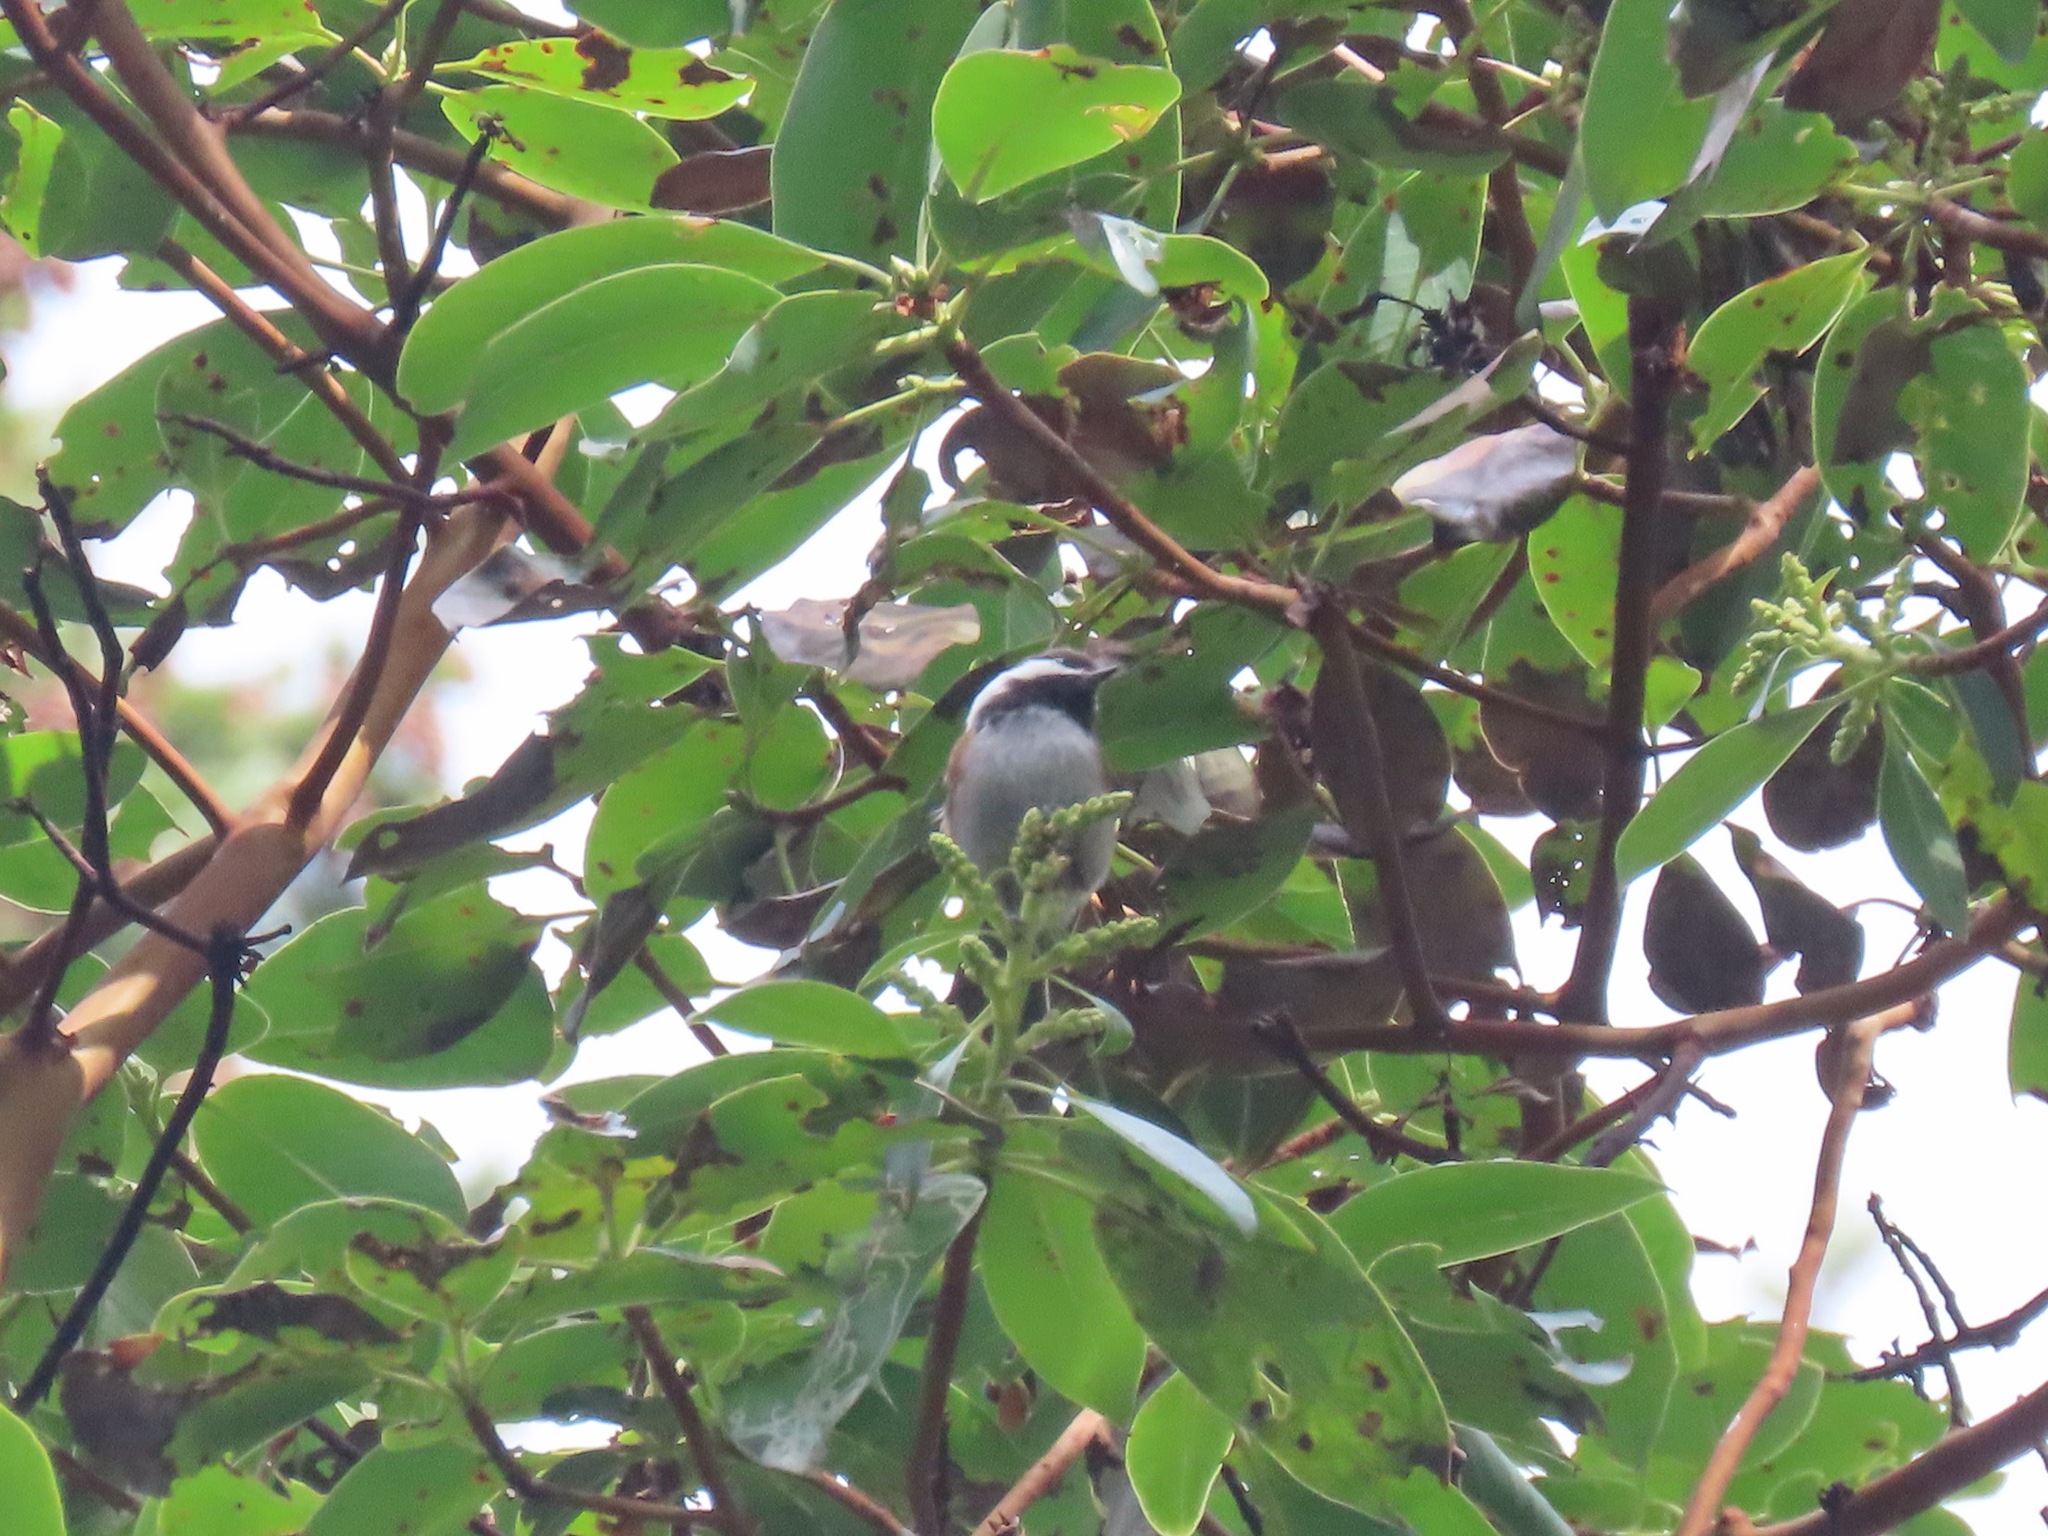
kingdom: Animalia
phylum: Chordata
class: Aves
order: Passeriformes
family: Paridae
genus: Poecile
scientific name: Poecile rufescens
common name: Chestnut-backed chickadee
